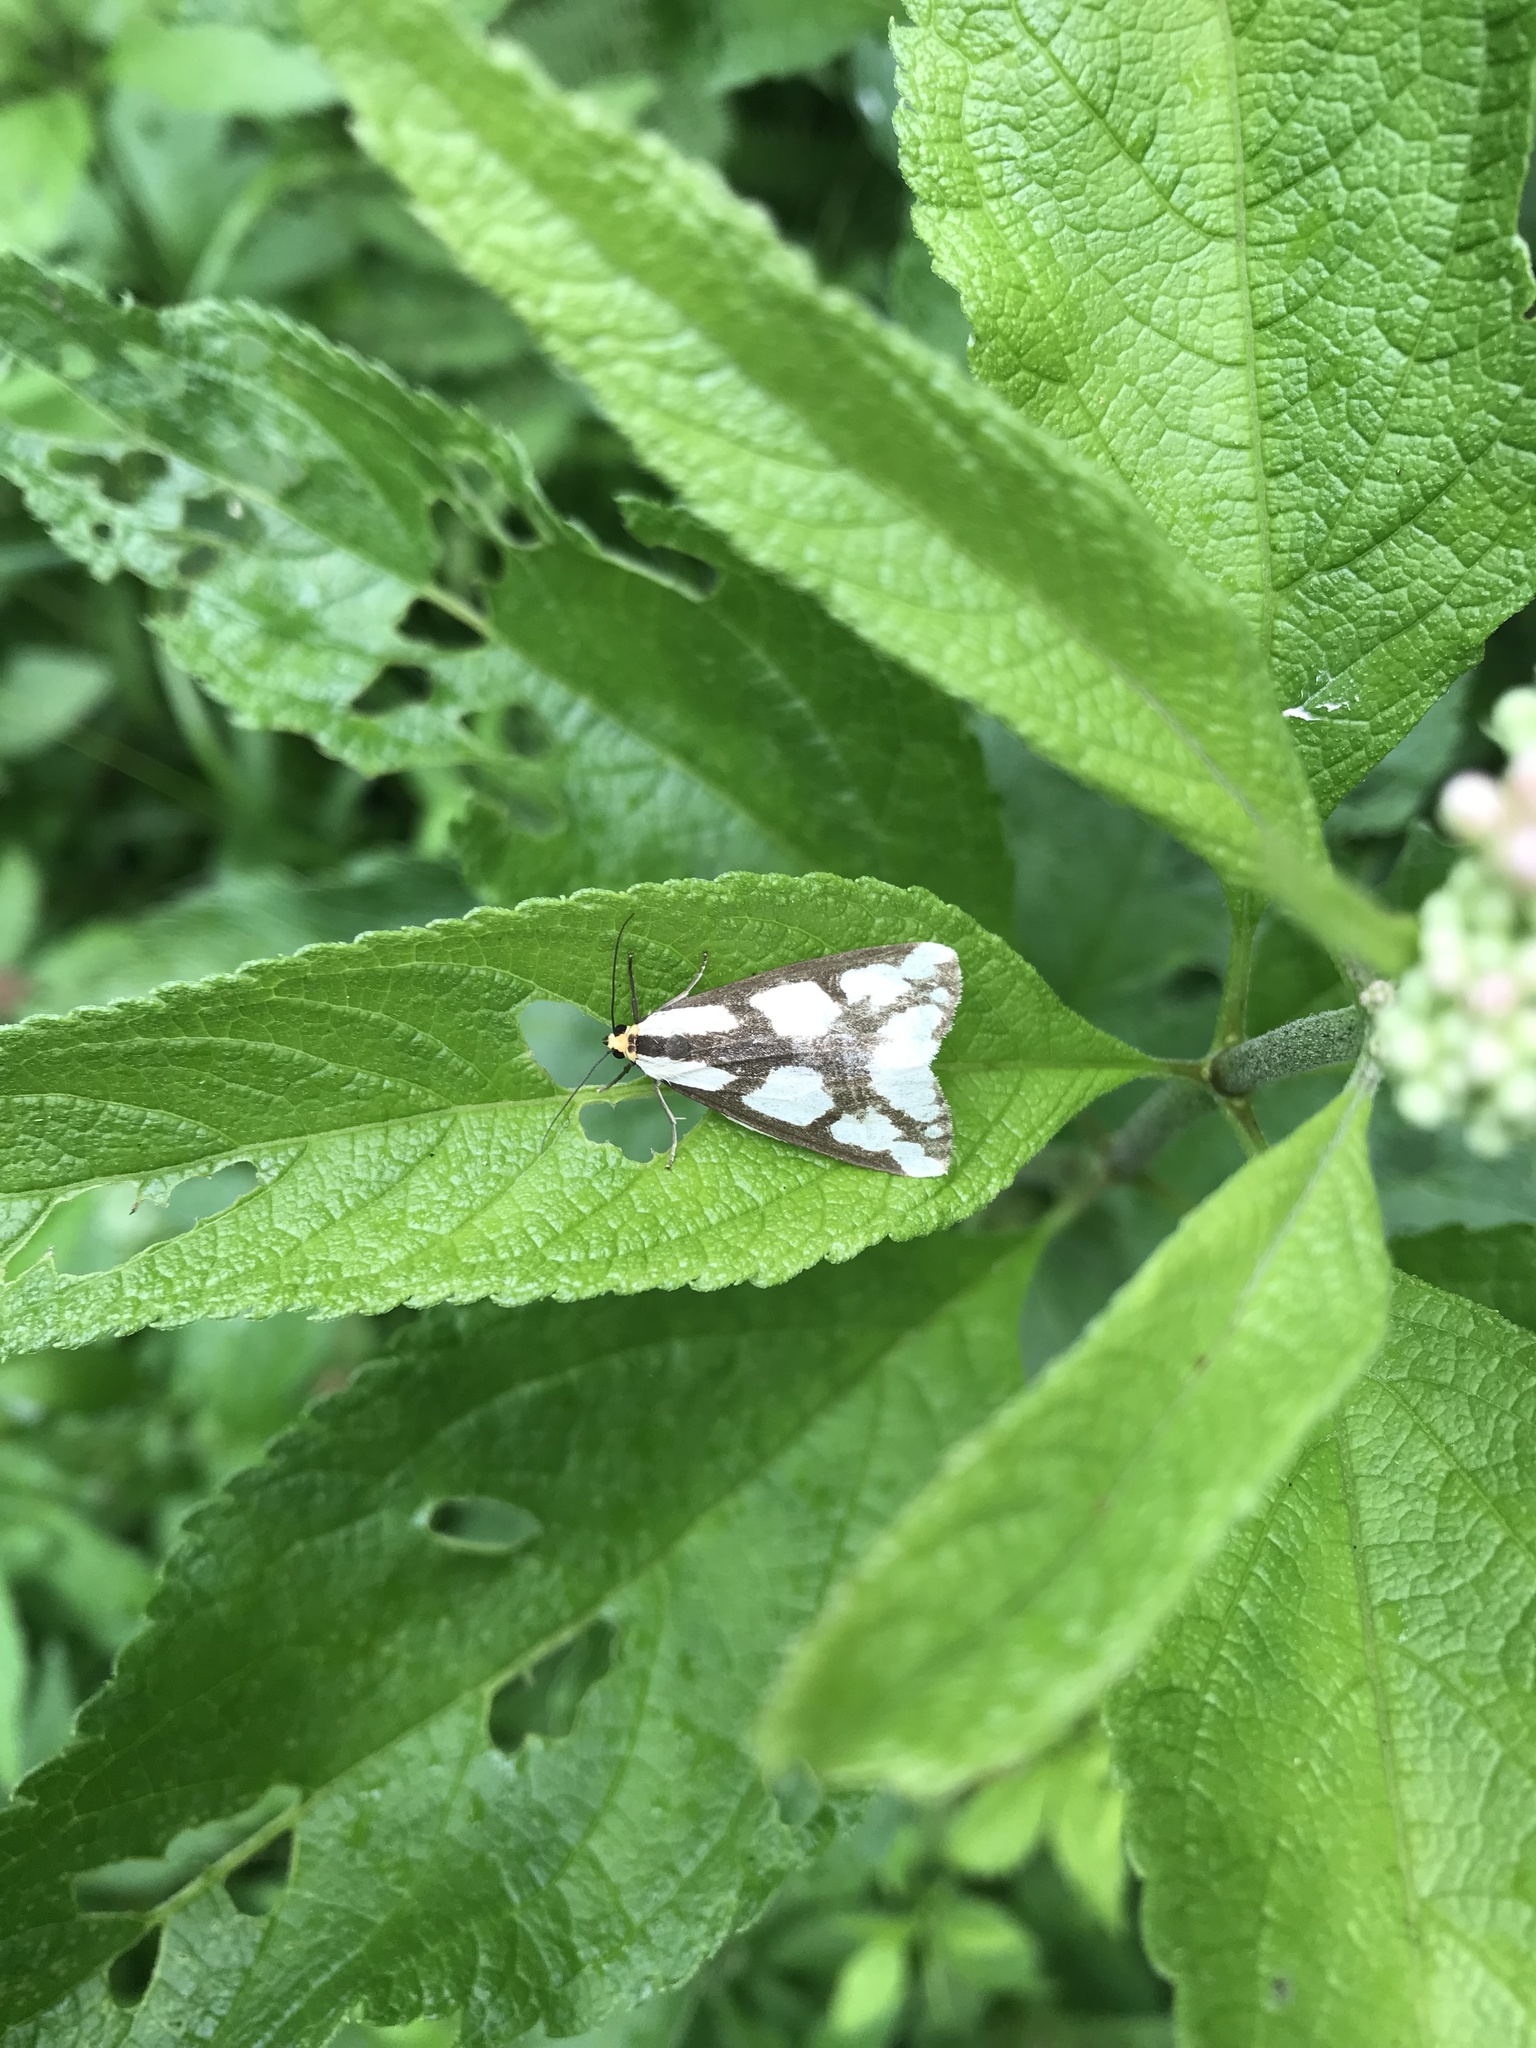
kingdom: Animalia
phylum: Arthropoda
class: Insecta
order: Lepidoptera
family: Erebidae
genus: Haploa
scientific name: Haploa lecontei
